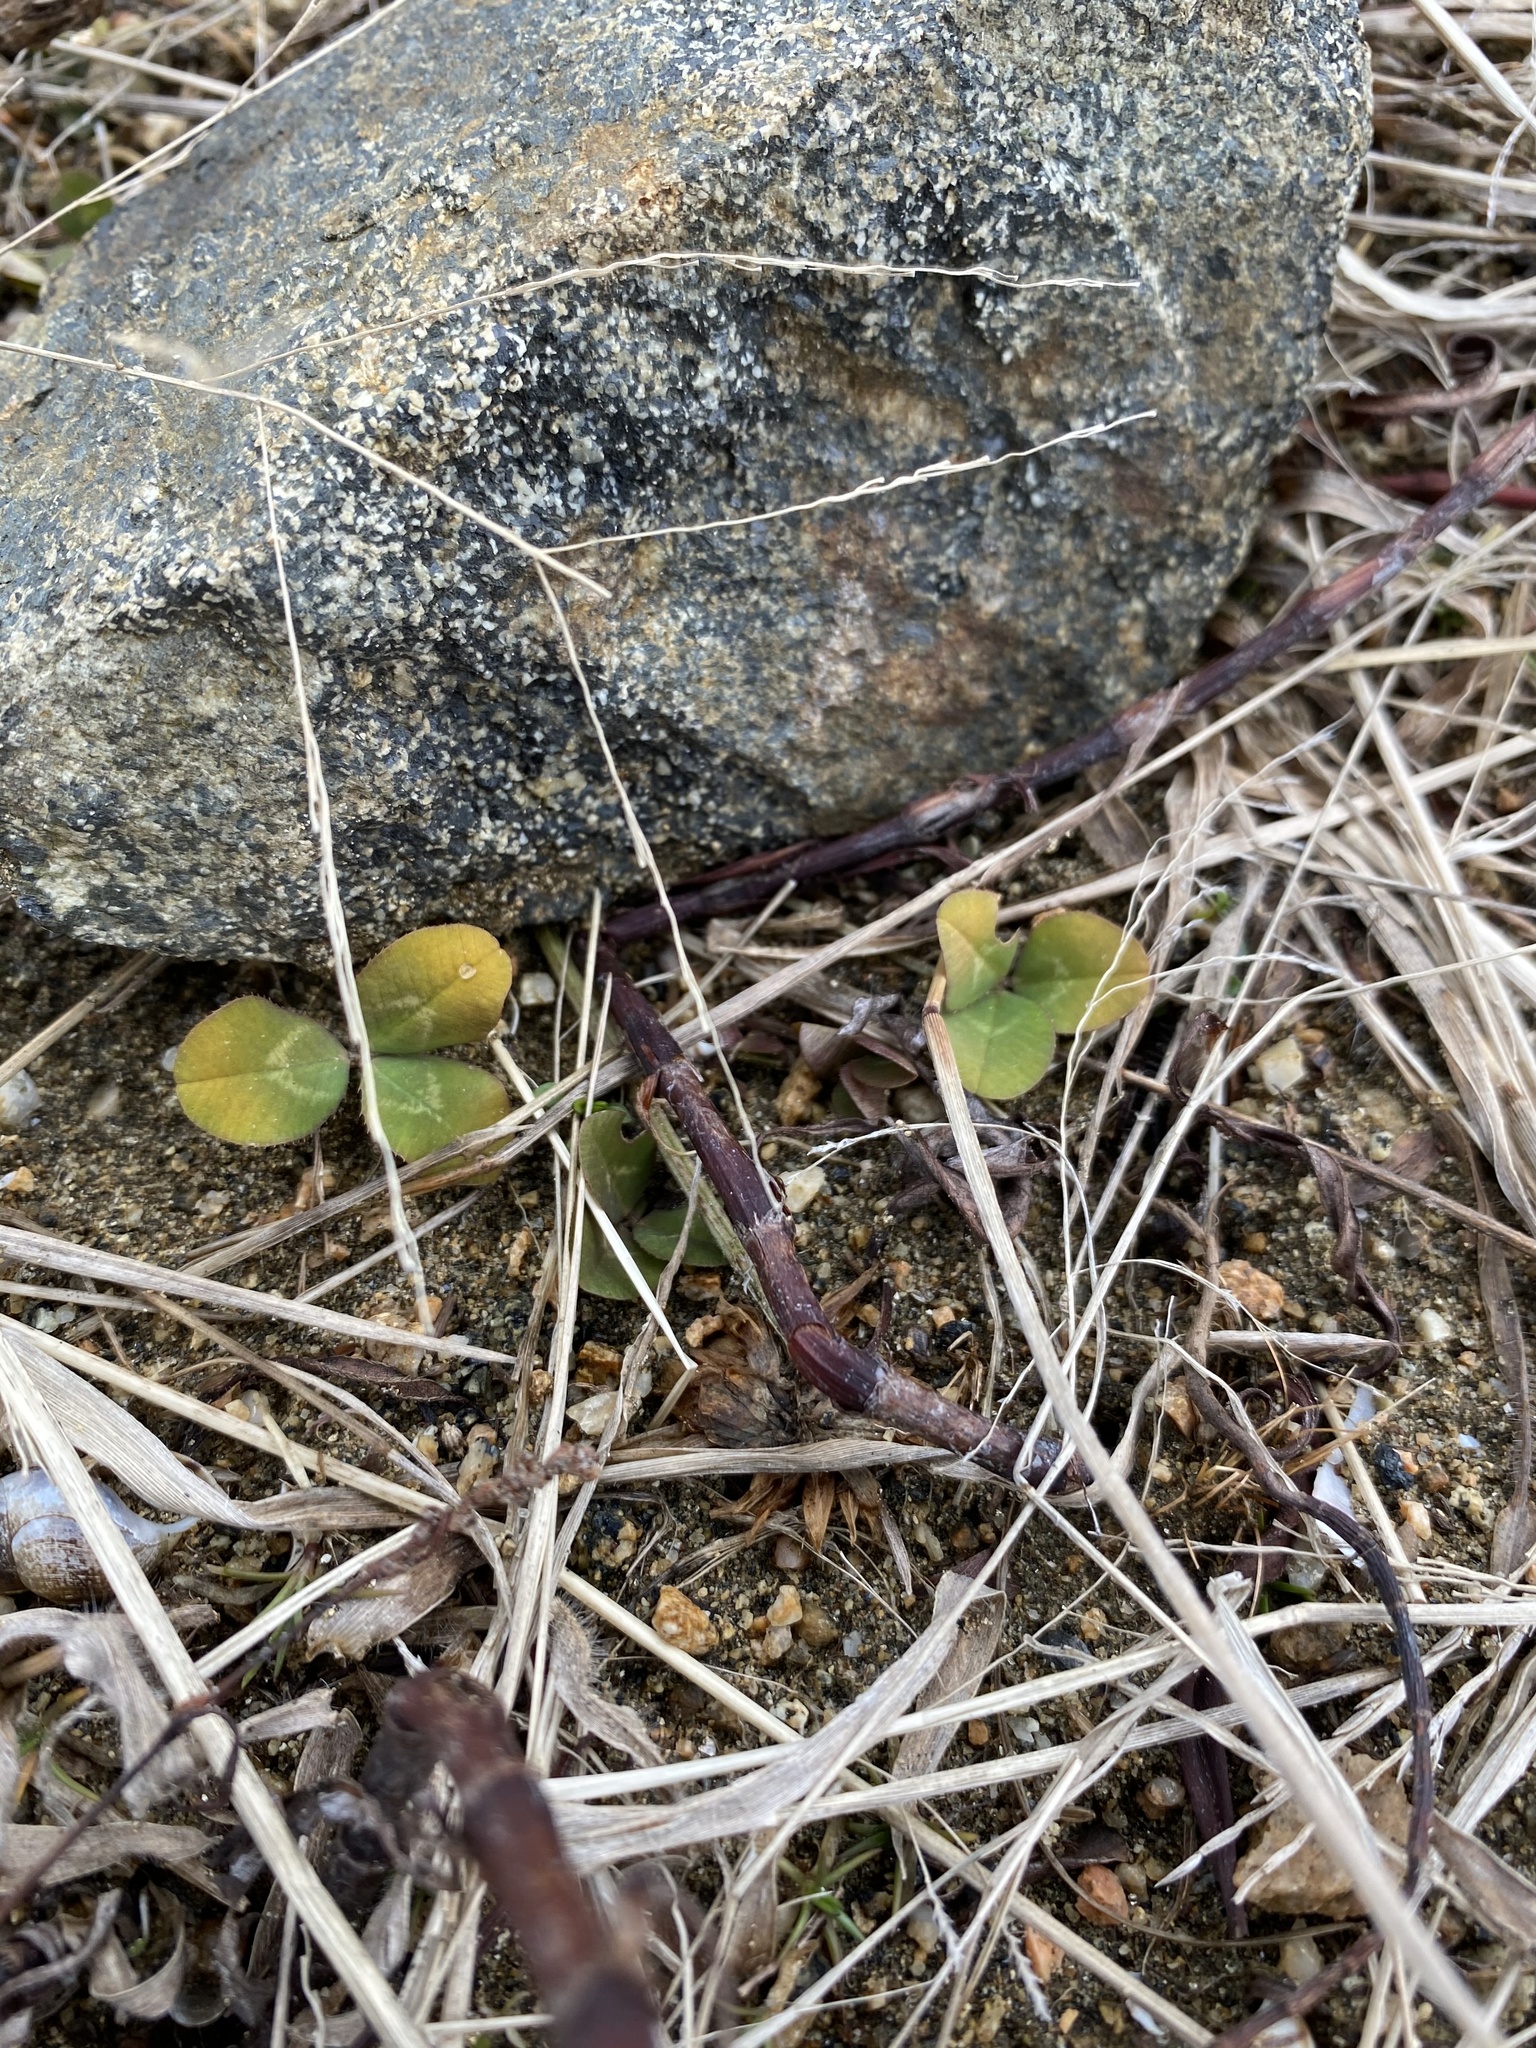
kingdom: Plantae
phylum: Tracheophyta
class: Magnoliopsida
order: Fabales
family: Fabaceae
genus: Trifolium
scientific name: Trifolium repens
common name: White clover
